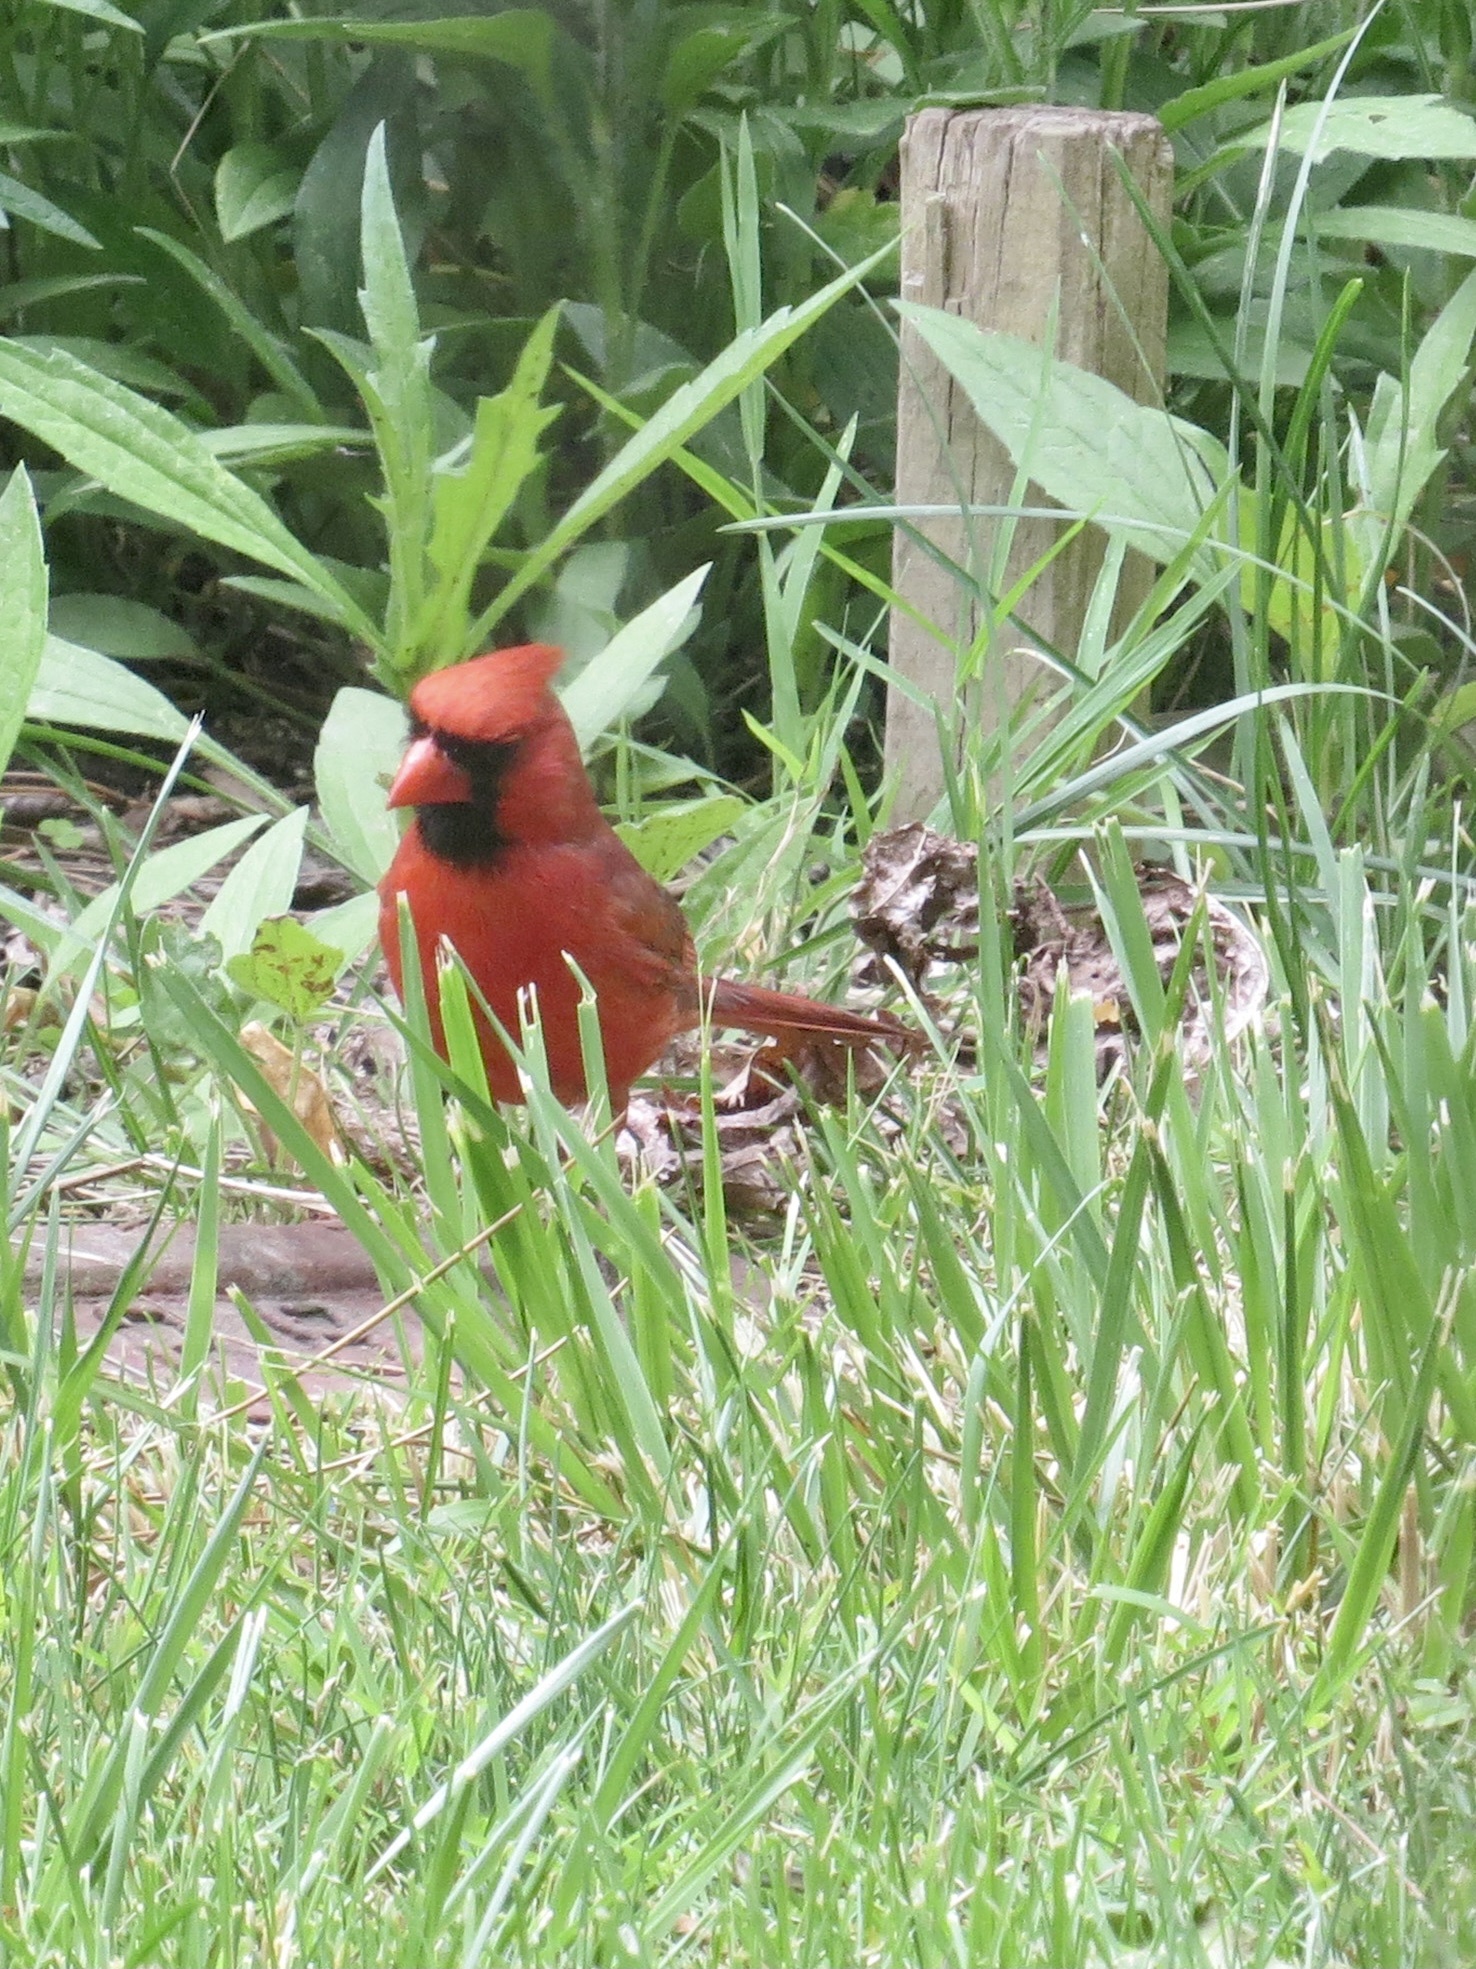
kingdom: Animalia
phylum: Chordata
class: Aves
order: Passeriformes
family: Cardinalidae
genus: Cardinalis
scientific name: Cardinalis cardinalis
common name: Northern cardinal
